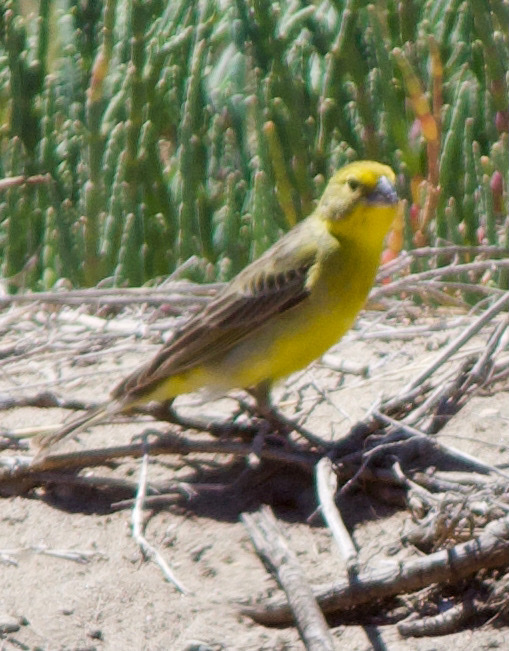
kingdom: Animalia
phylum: Chordata
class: Aves
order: Passeriformes
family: Thraupidae
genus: Sicalis
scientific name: Sicalis luteola
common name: Grassland yellow-finch
